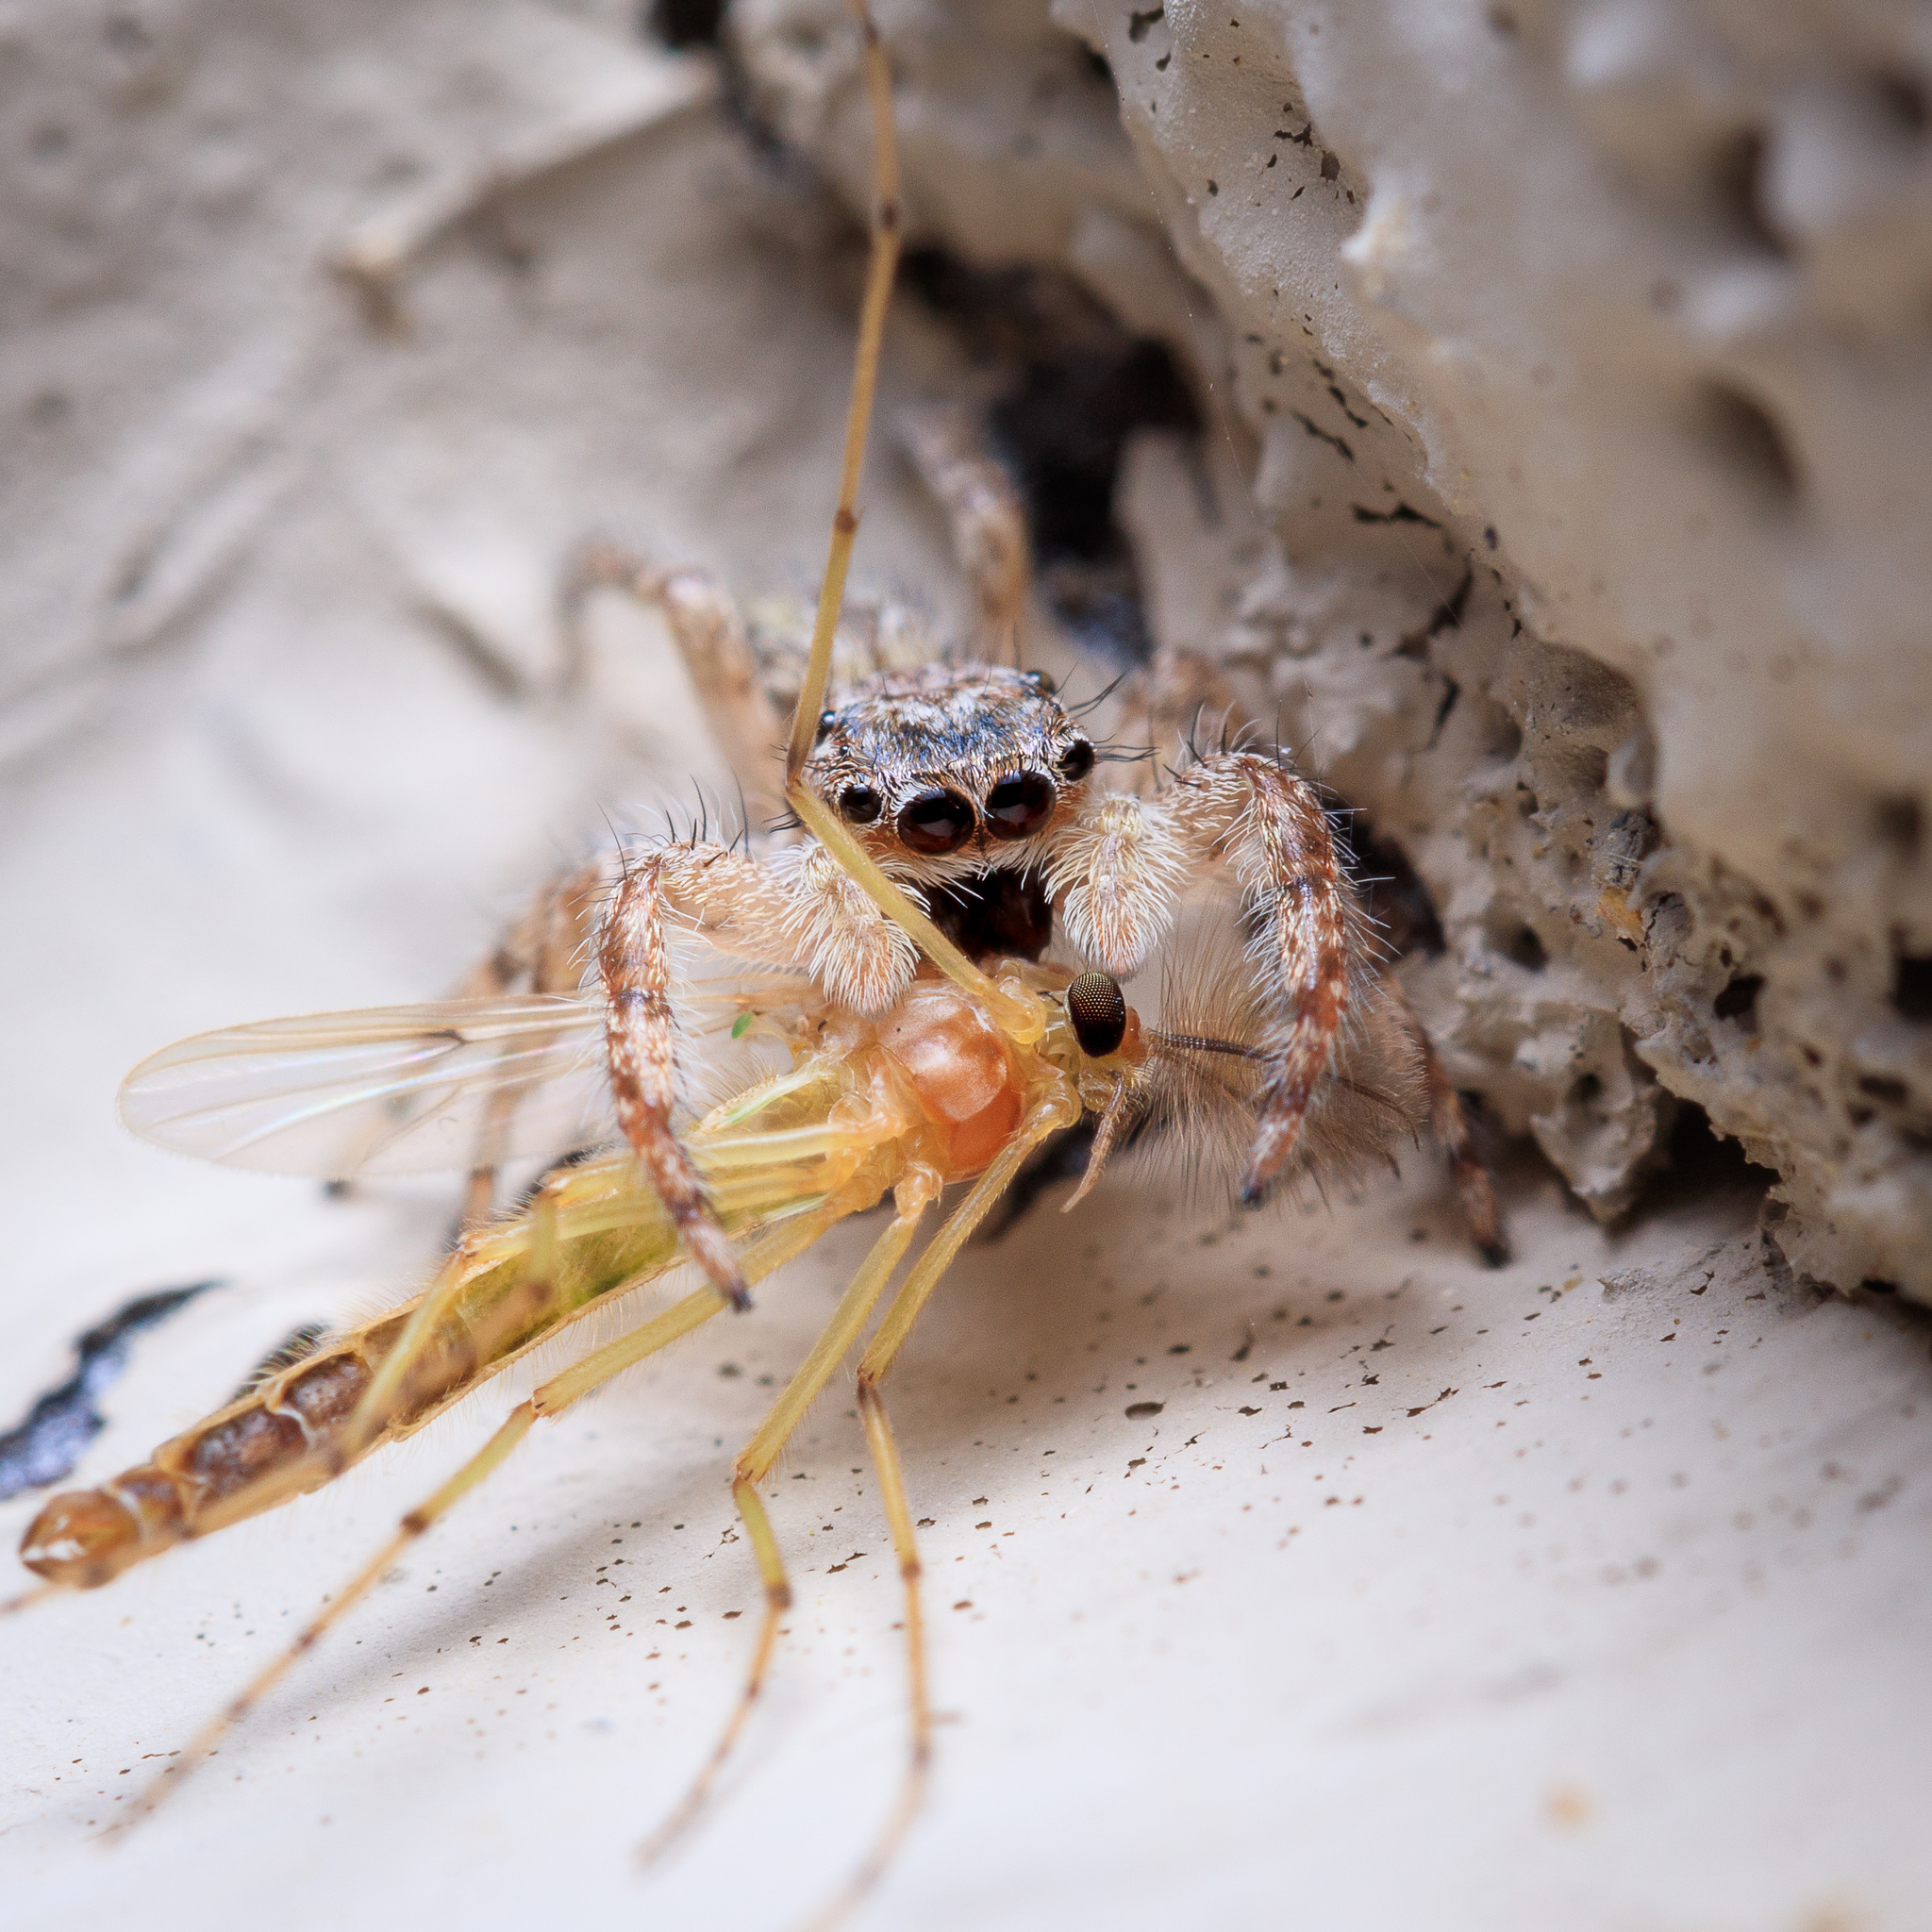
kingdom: Animalia
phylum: Arthropoda
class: Arachnida
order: Araneae
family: Salticidae
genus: Platycryptus
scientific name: Platycryptus undatus
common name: Tan jumping spider
